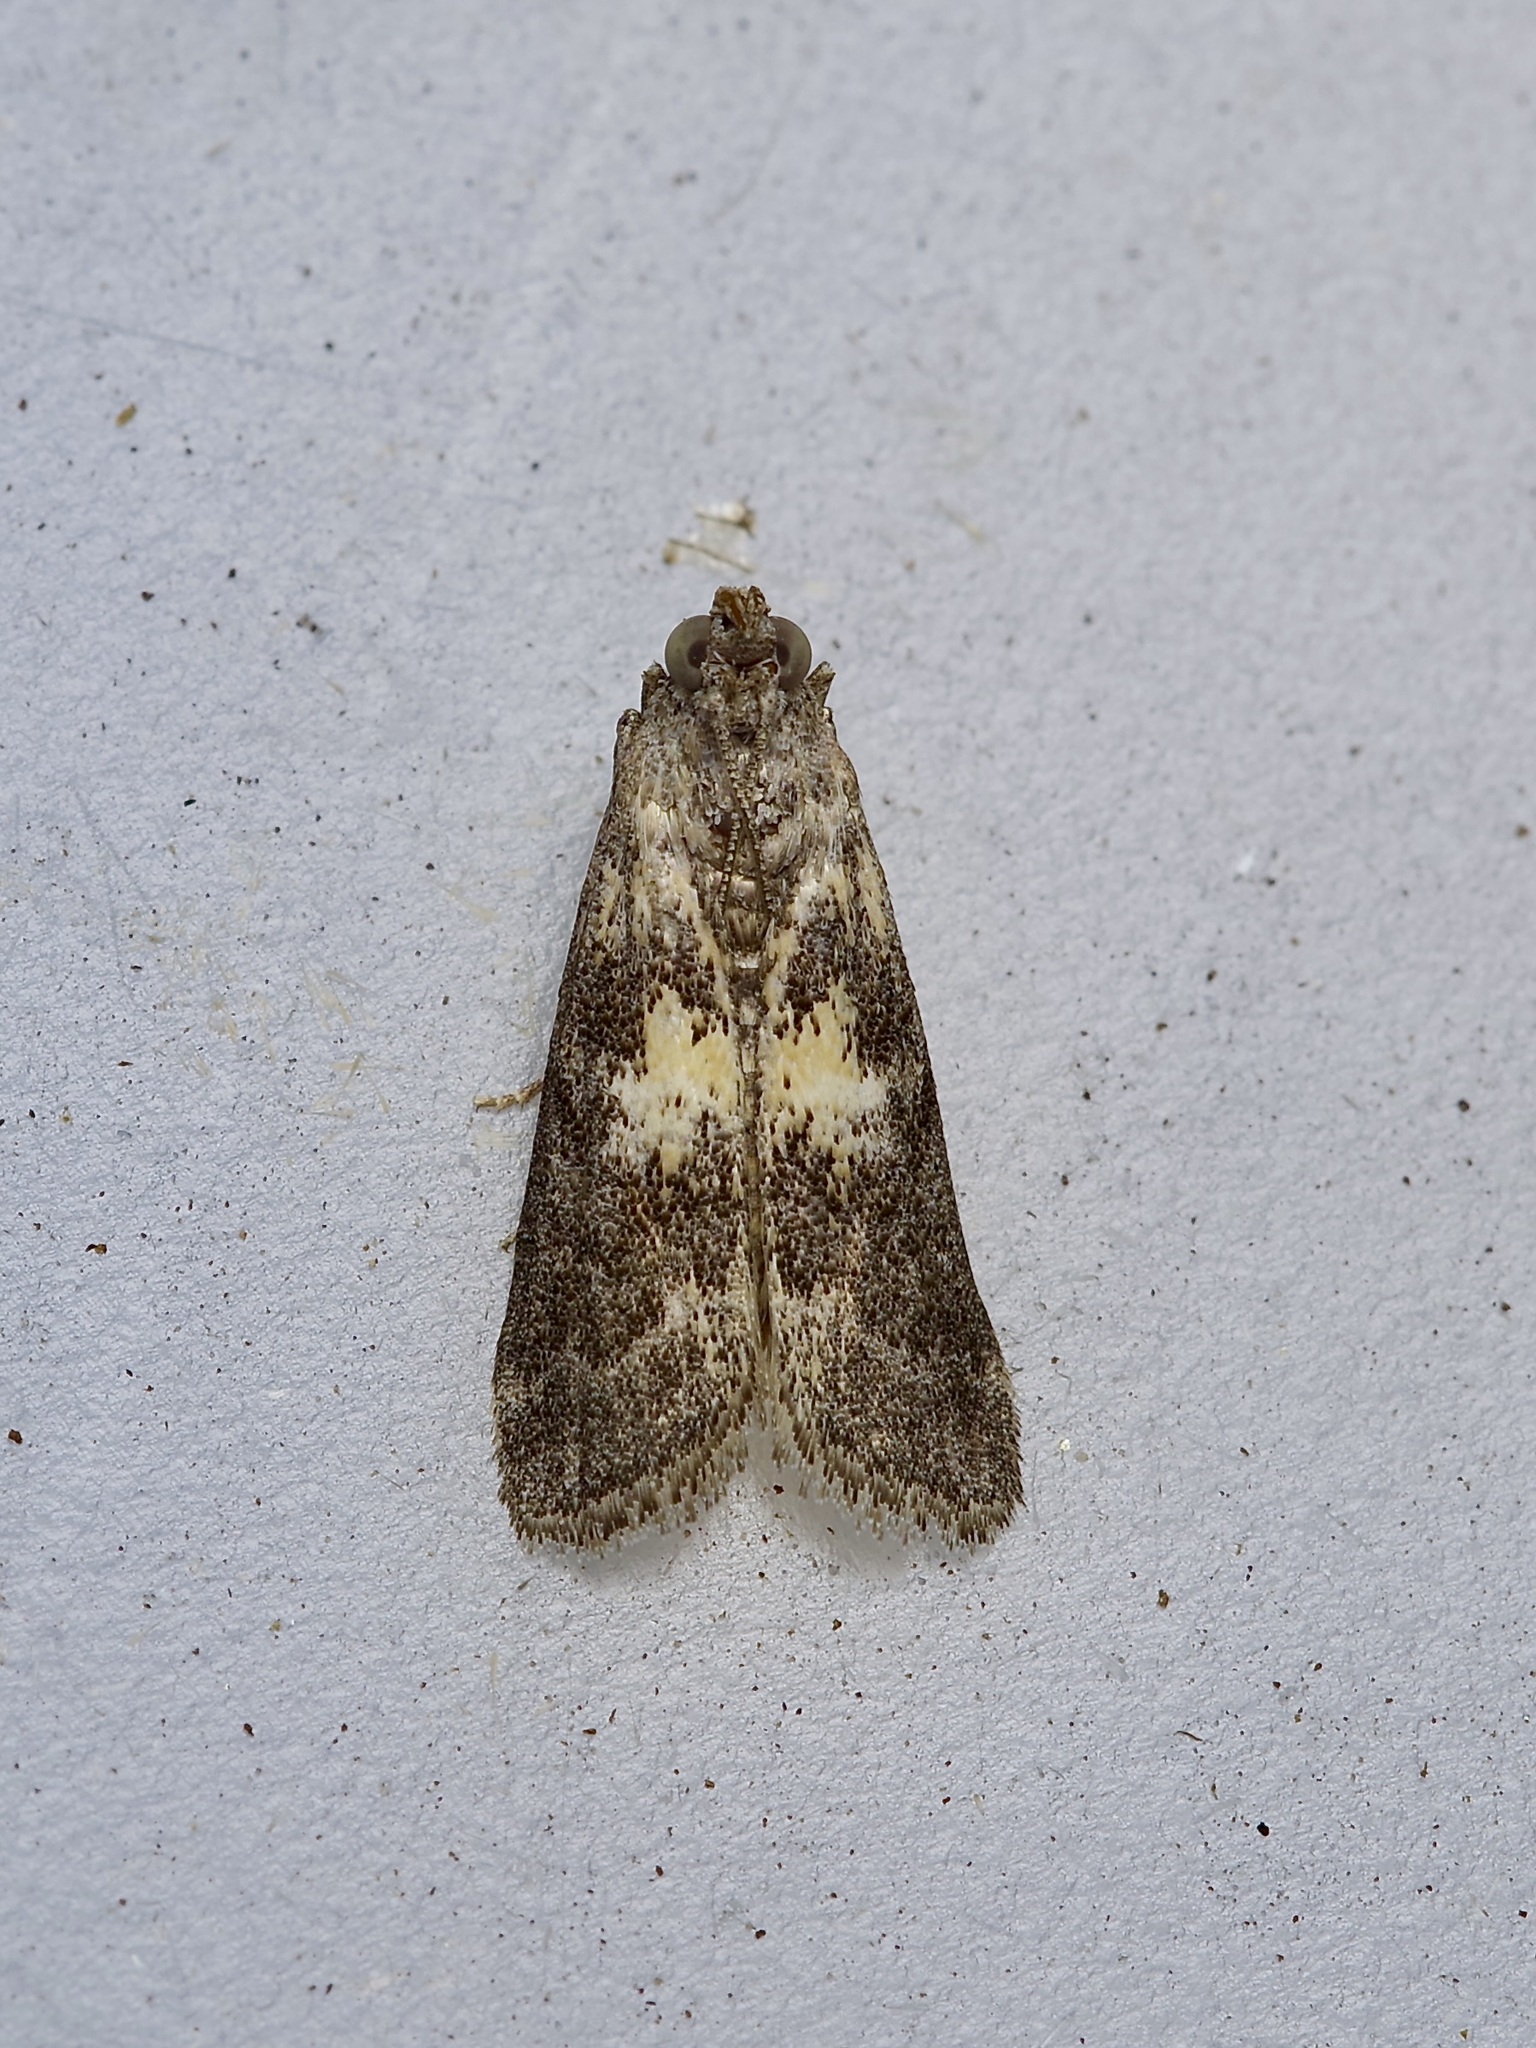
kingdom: Animalia
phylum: Arthropoda
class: Insecta
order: Lepidoptera
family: Pyralidae
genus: Tacoma
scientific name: Tacoma feriella
